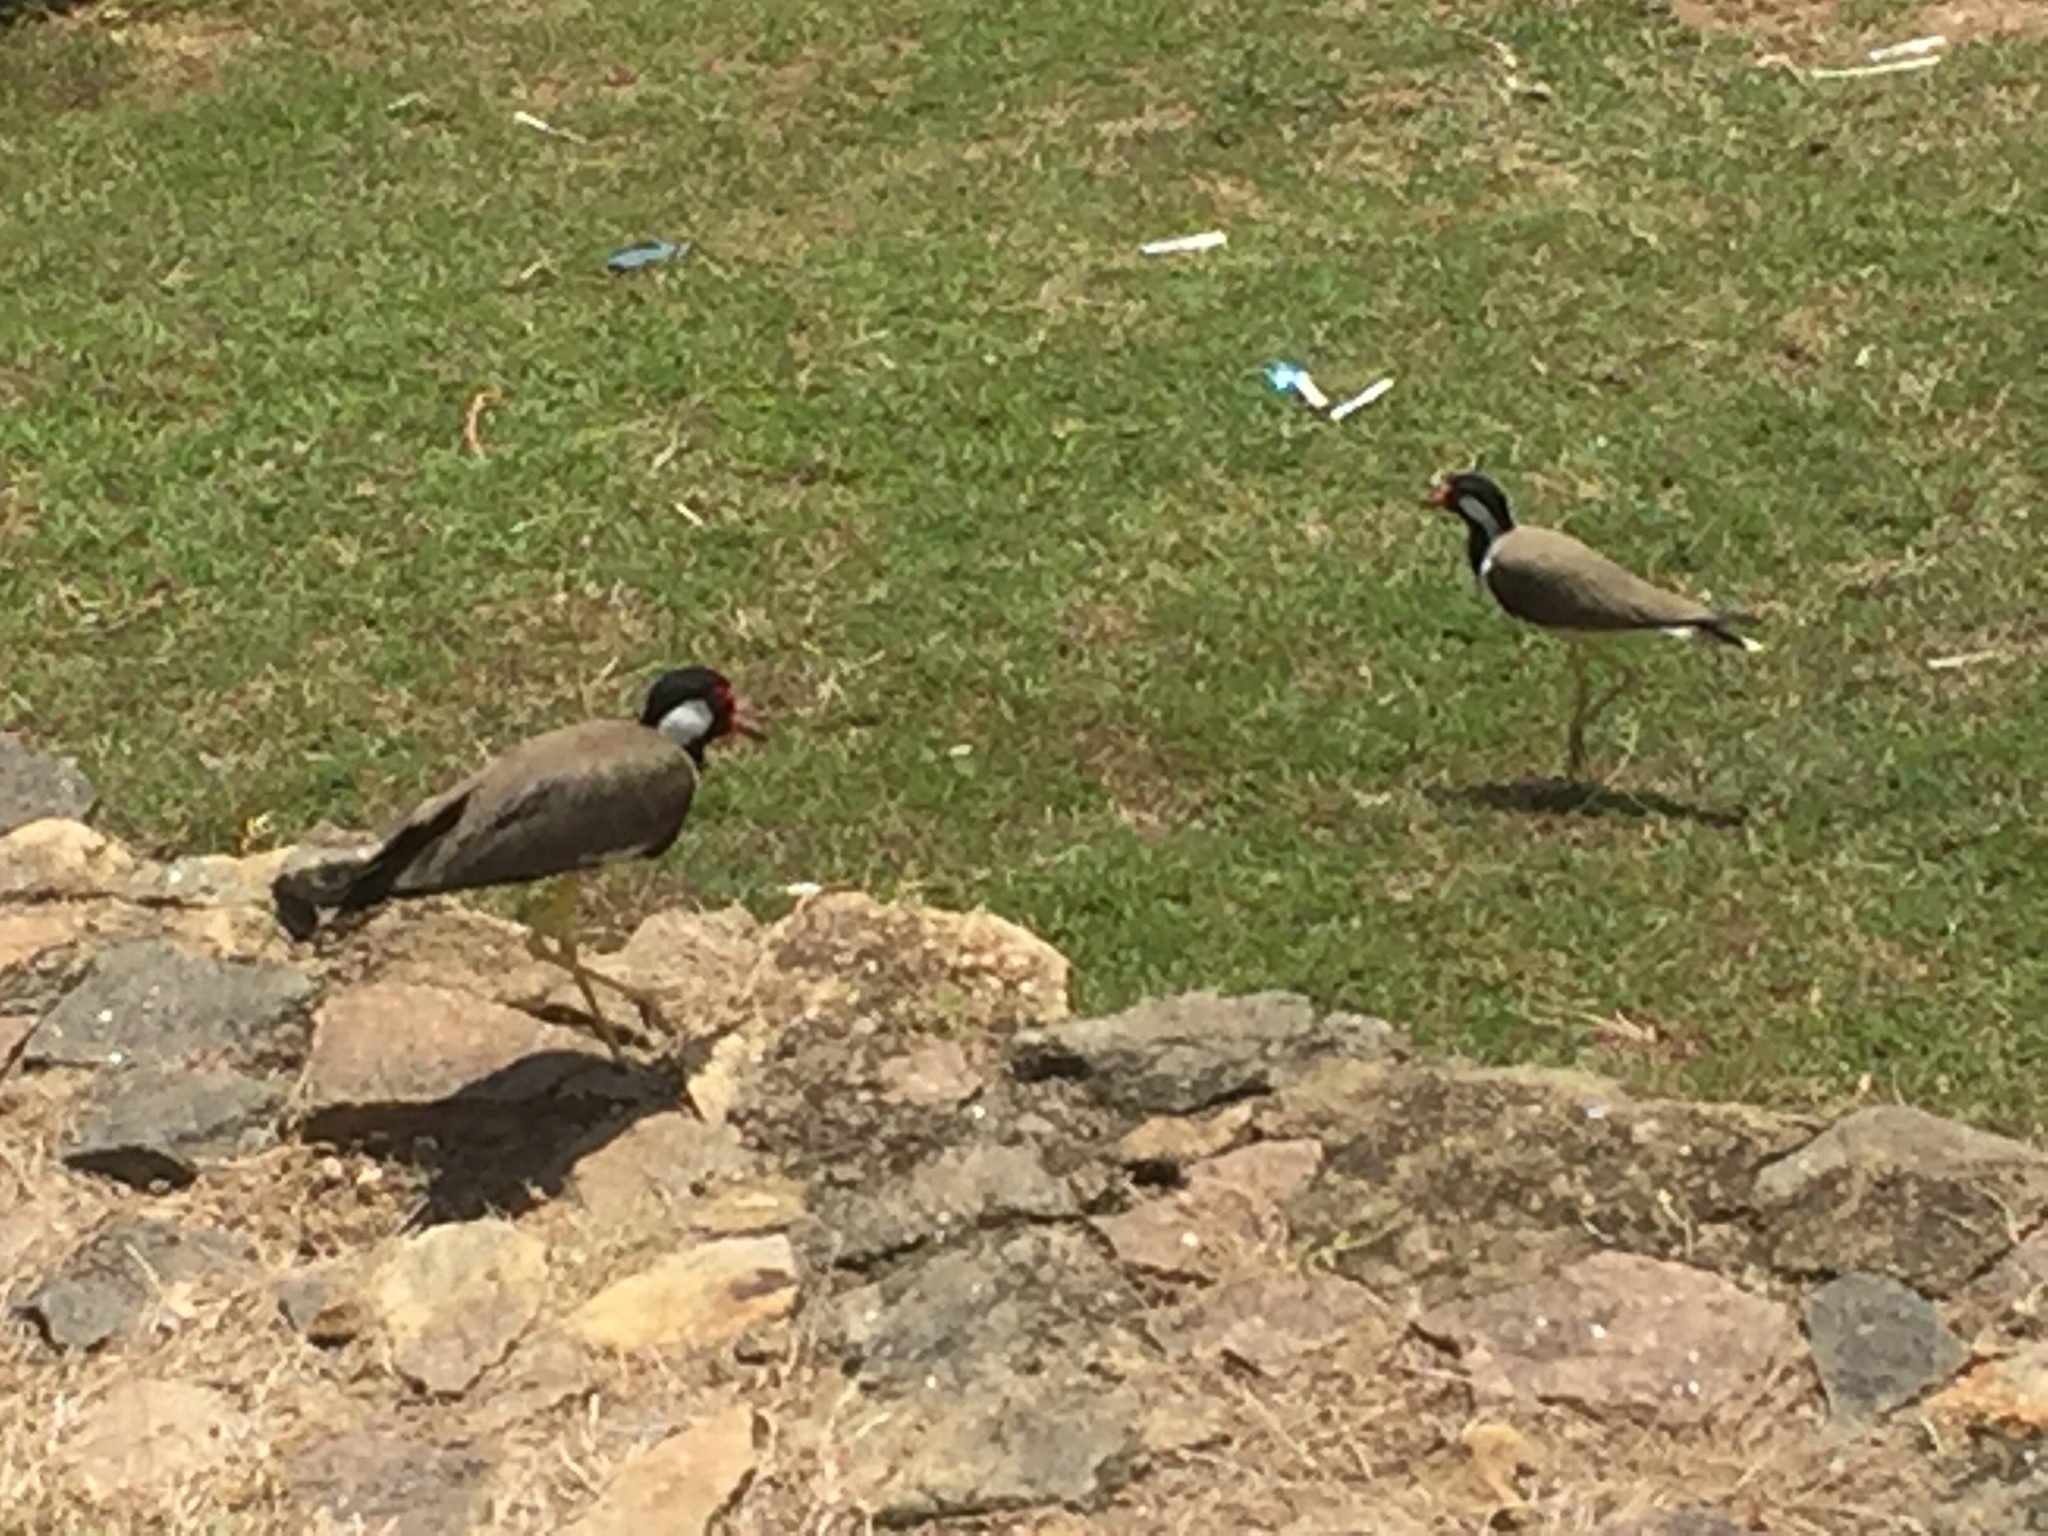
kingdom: Animalia
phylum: Chordata
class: Aves
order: Charadriiformes
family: Charadriidae
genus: Vanellus
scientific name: Vanellus indicus
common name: Red-wattled lapwing
